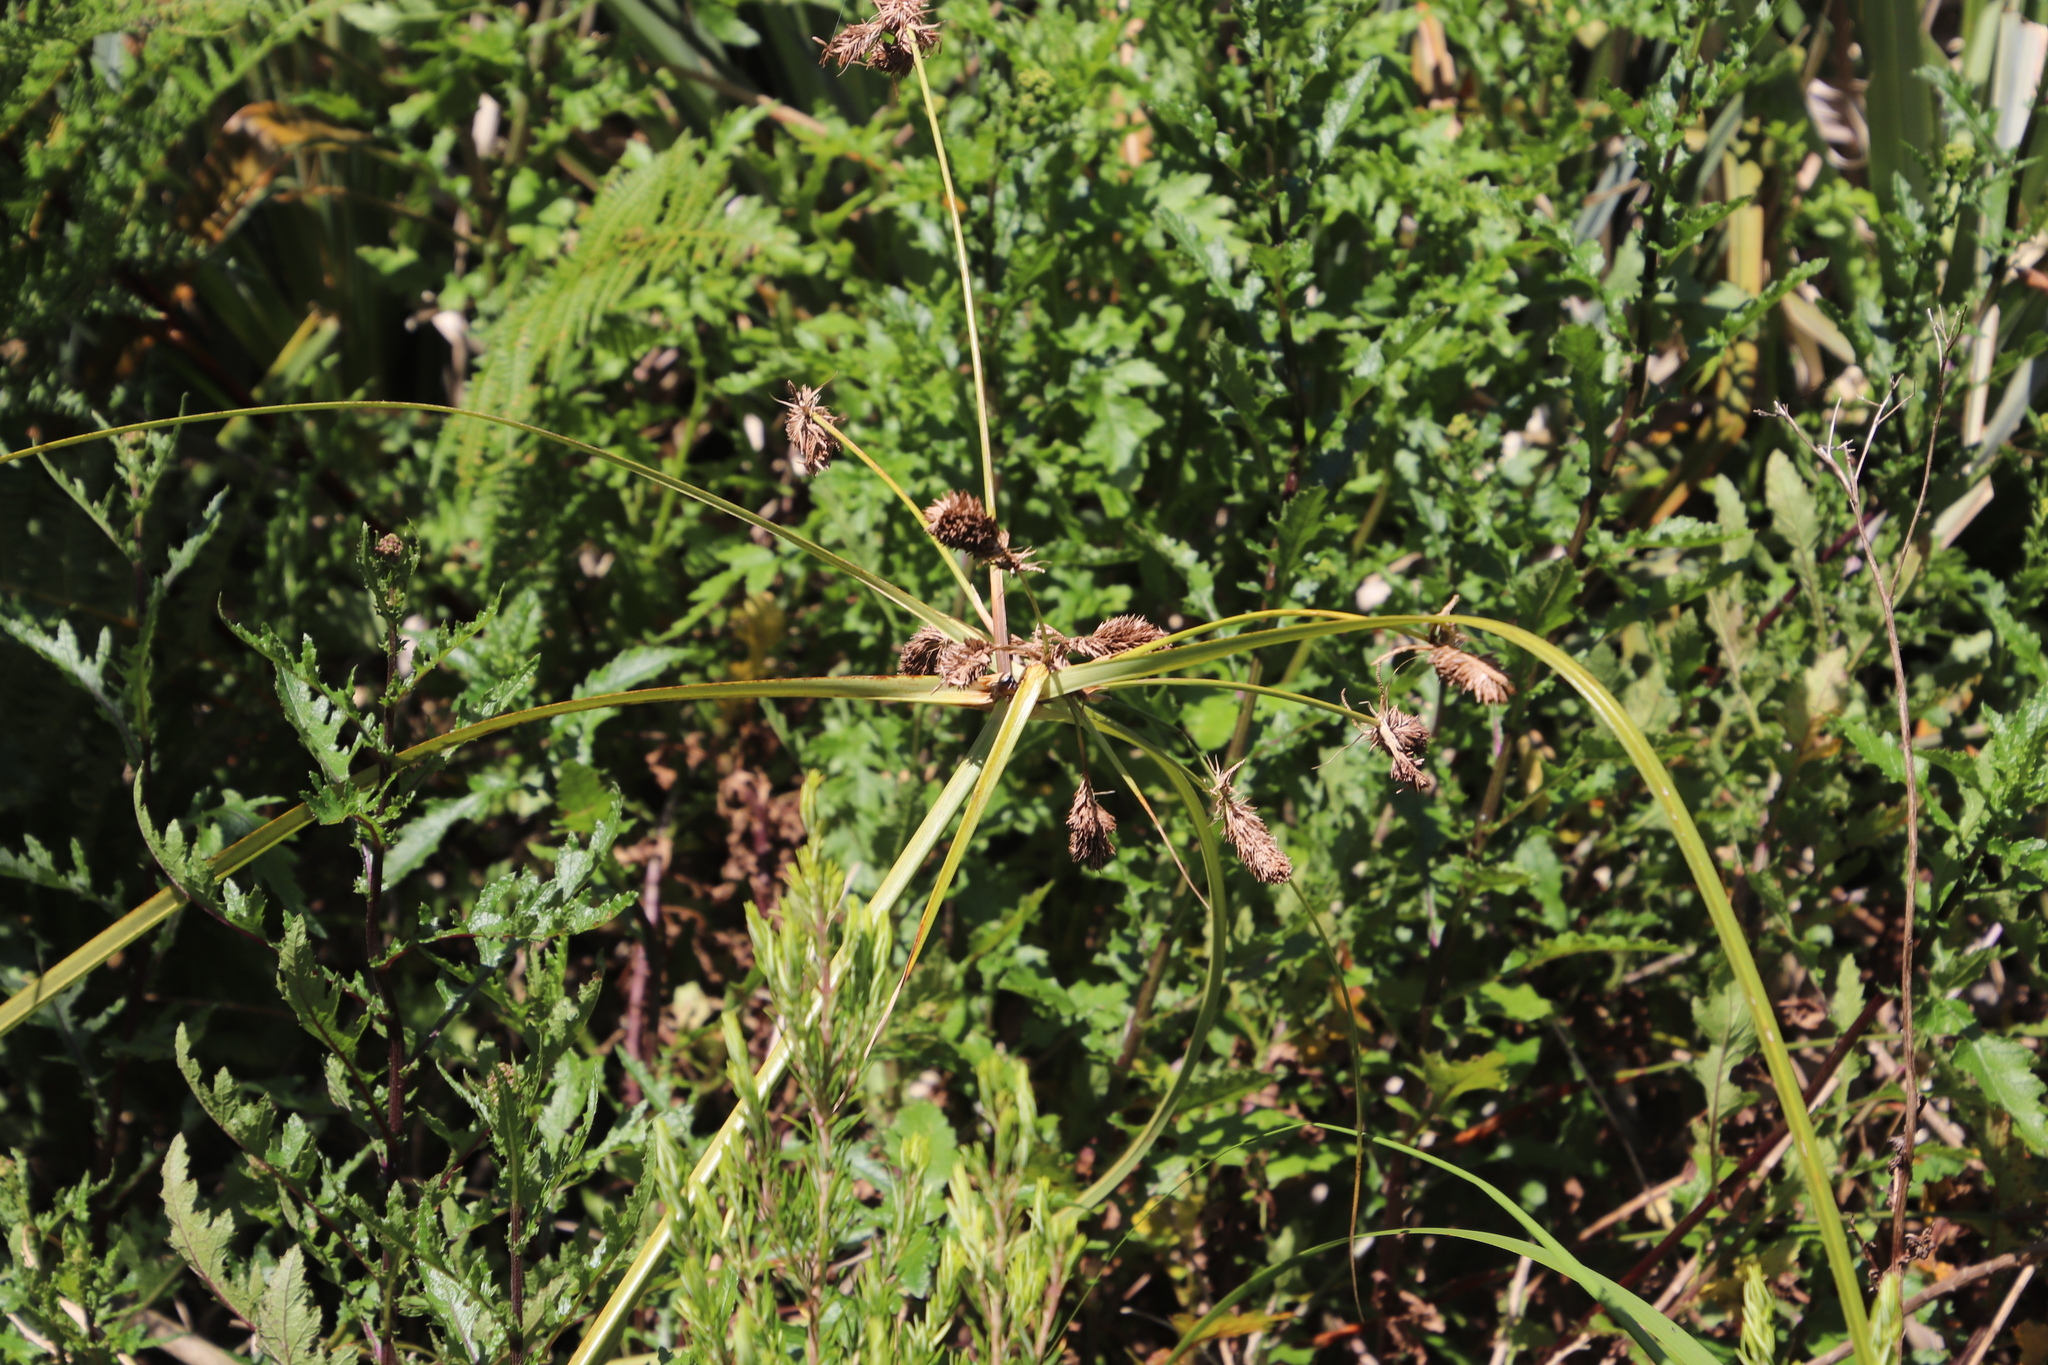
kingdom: Plantae
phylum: Tracheophyta
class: Liliopsida
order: Poales
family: Cyperaceae
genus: Cyperus
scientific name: Cyperus thunbergii
